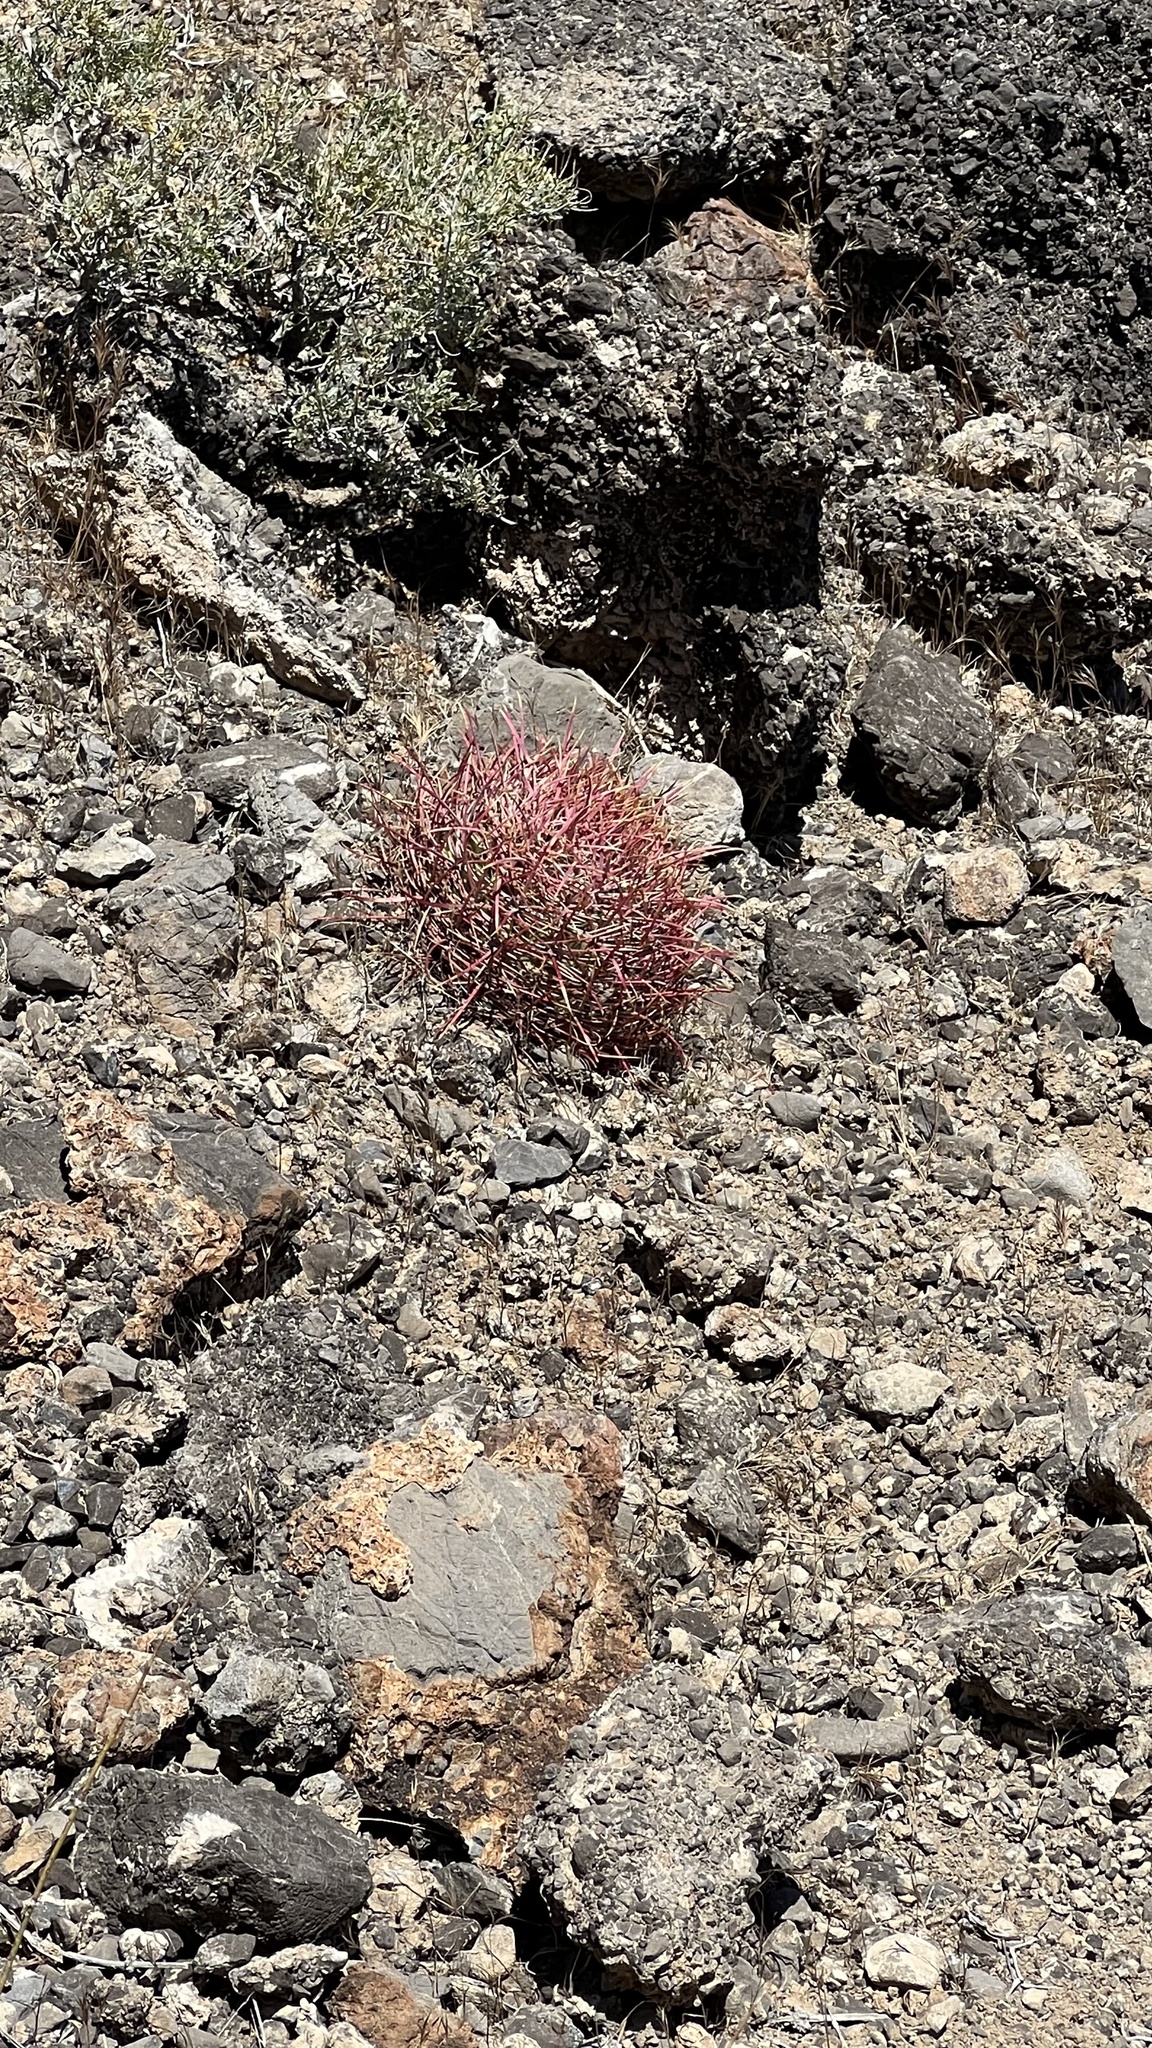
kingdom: Plantae
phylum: Tracheophyta
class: Magnoliopsida
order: Caryophyllales
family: Cactaceae
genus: Ferocactus
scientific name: Ferocactus cylindraceus
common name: California barrel cactus
